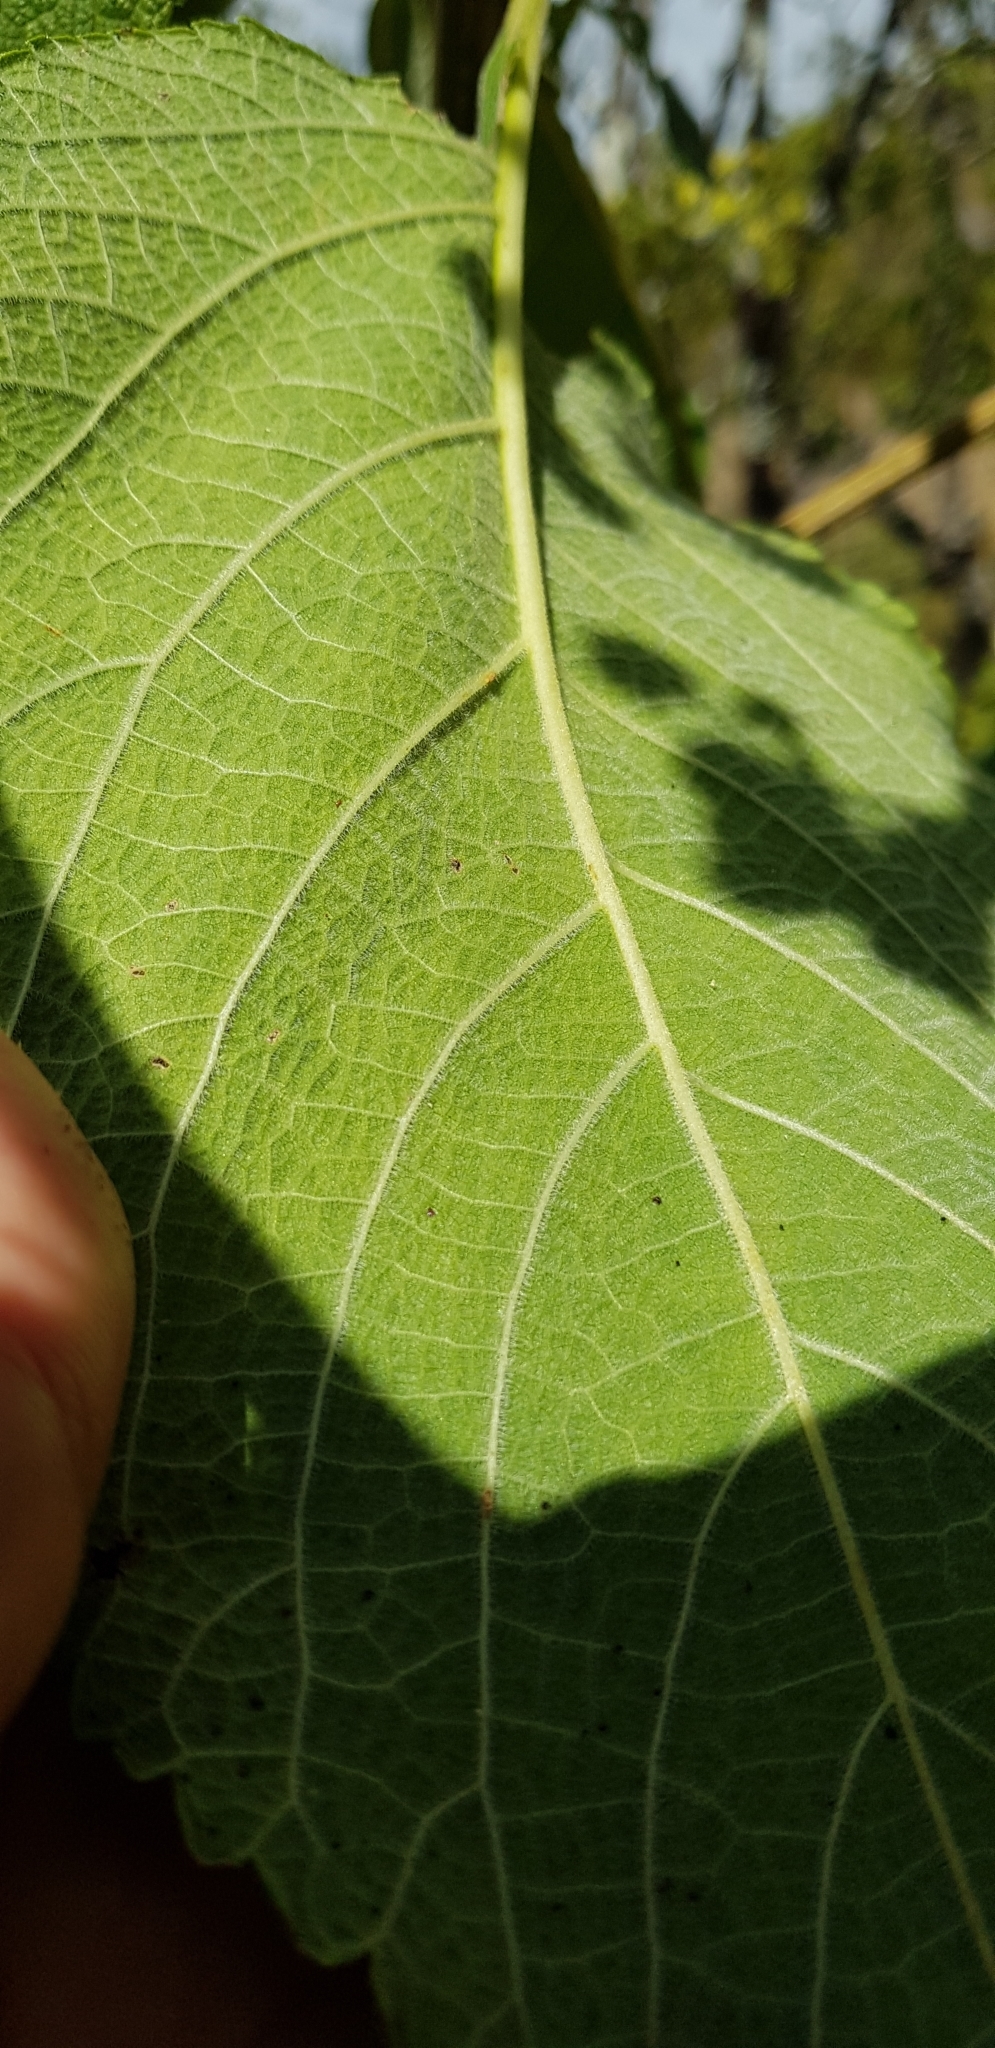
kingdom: Plantae
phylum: Tracheophyta
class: Magnoliopsida
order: Lamiales
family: Verbenaceae
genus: Lippia
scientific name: Lippia umbellata
